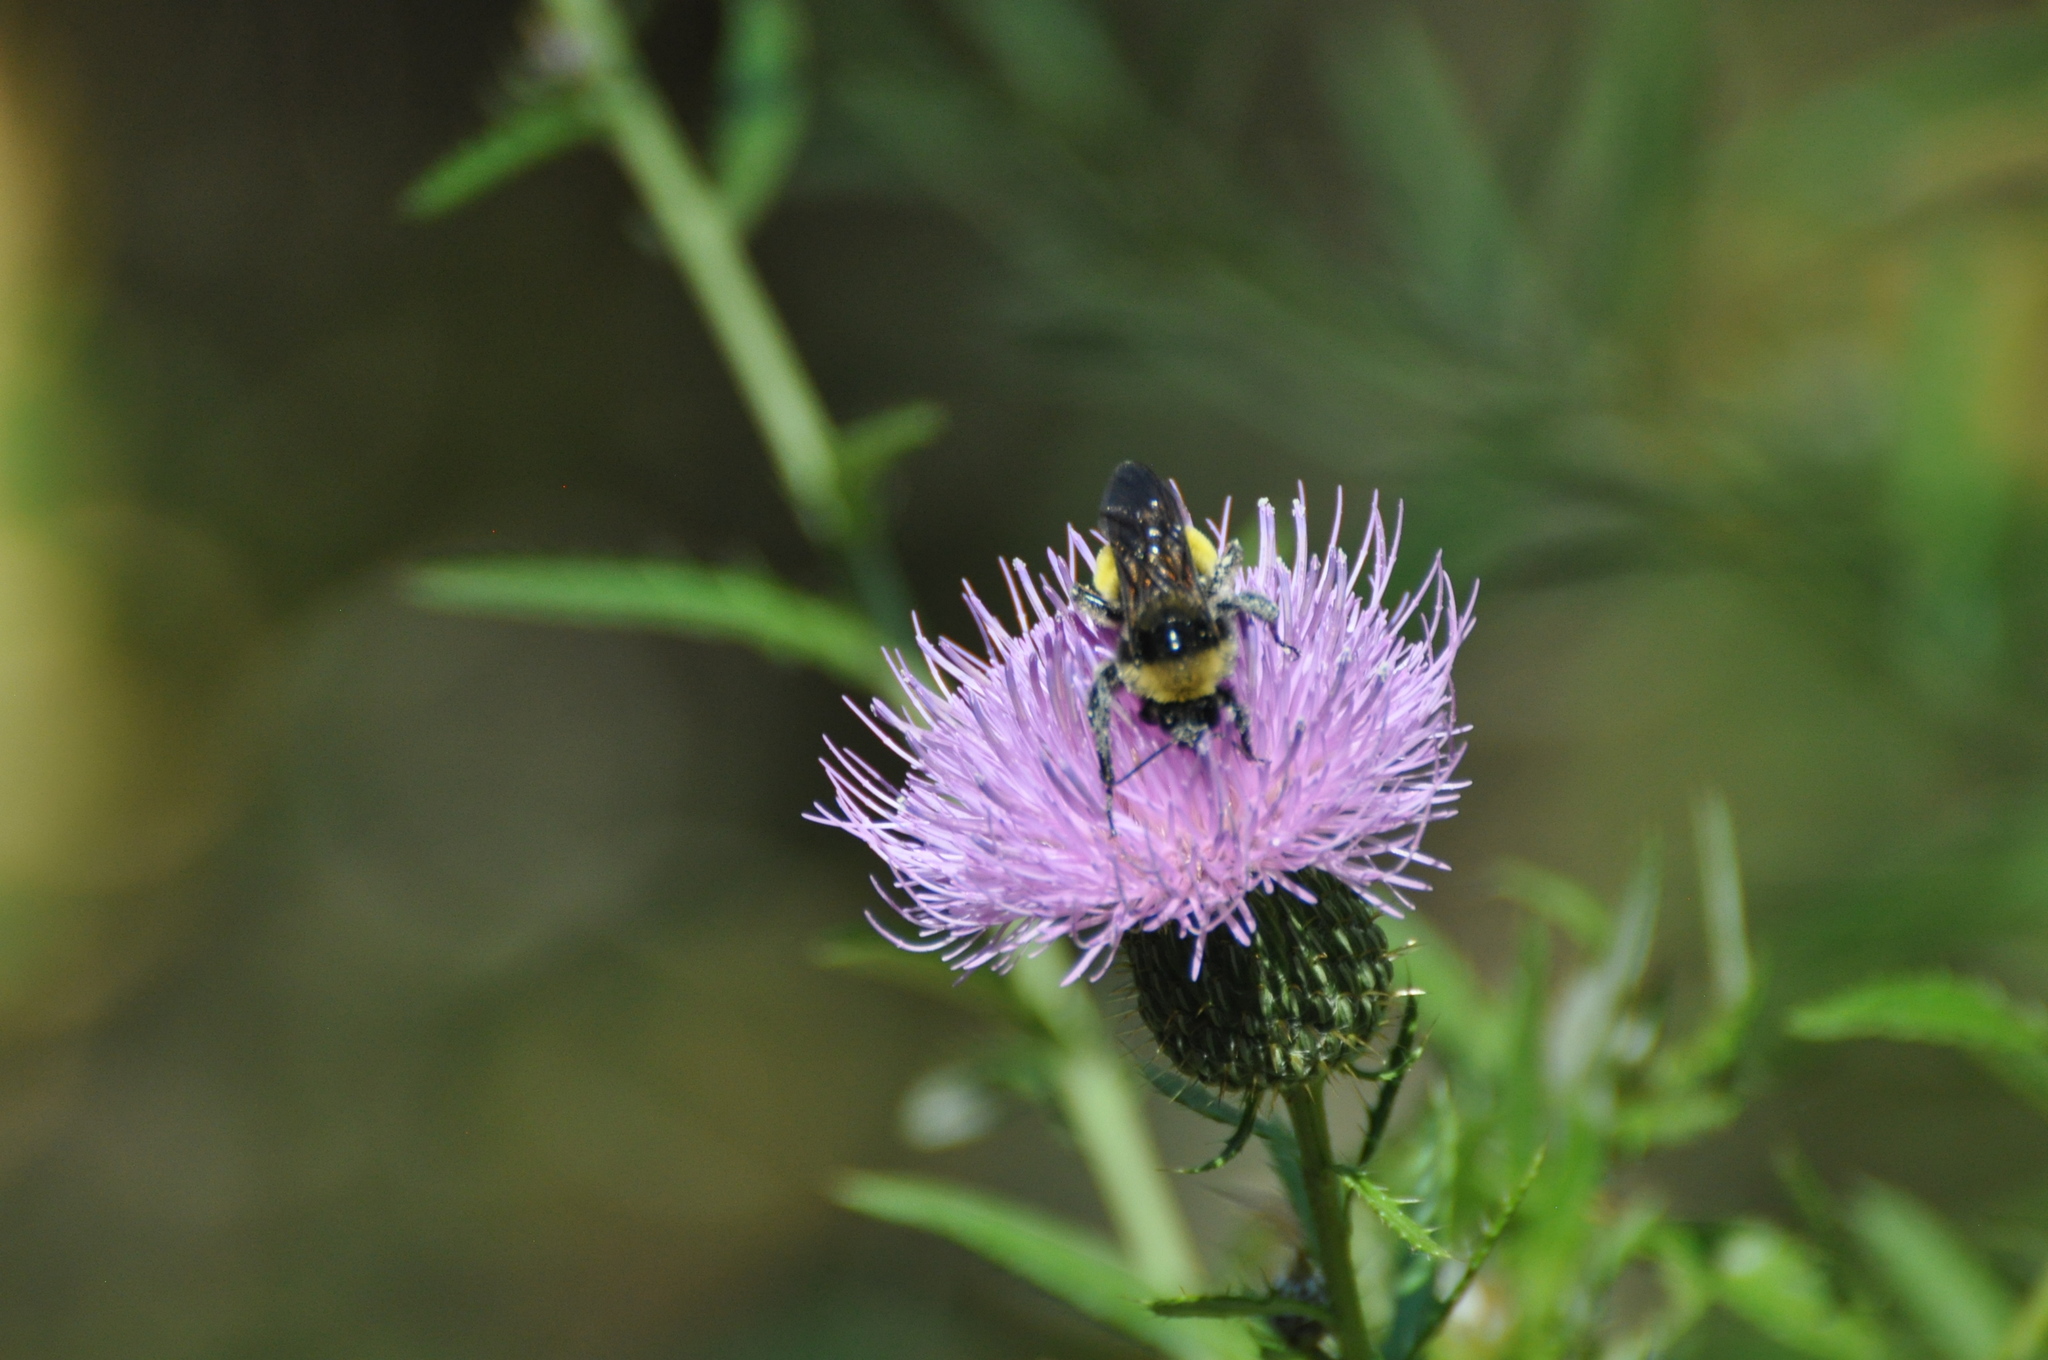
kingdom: Animalia
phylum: Arthropoda
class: Insecta
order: Hymenoptera
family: Apidae
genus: Bombus
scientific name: Bombus pensylvanicus
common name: Bumble bee
